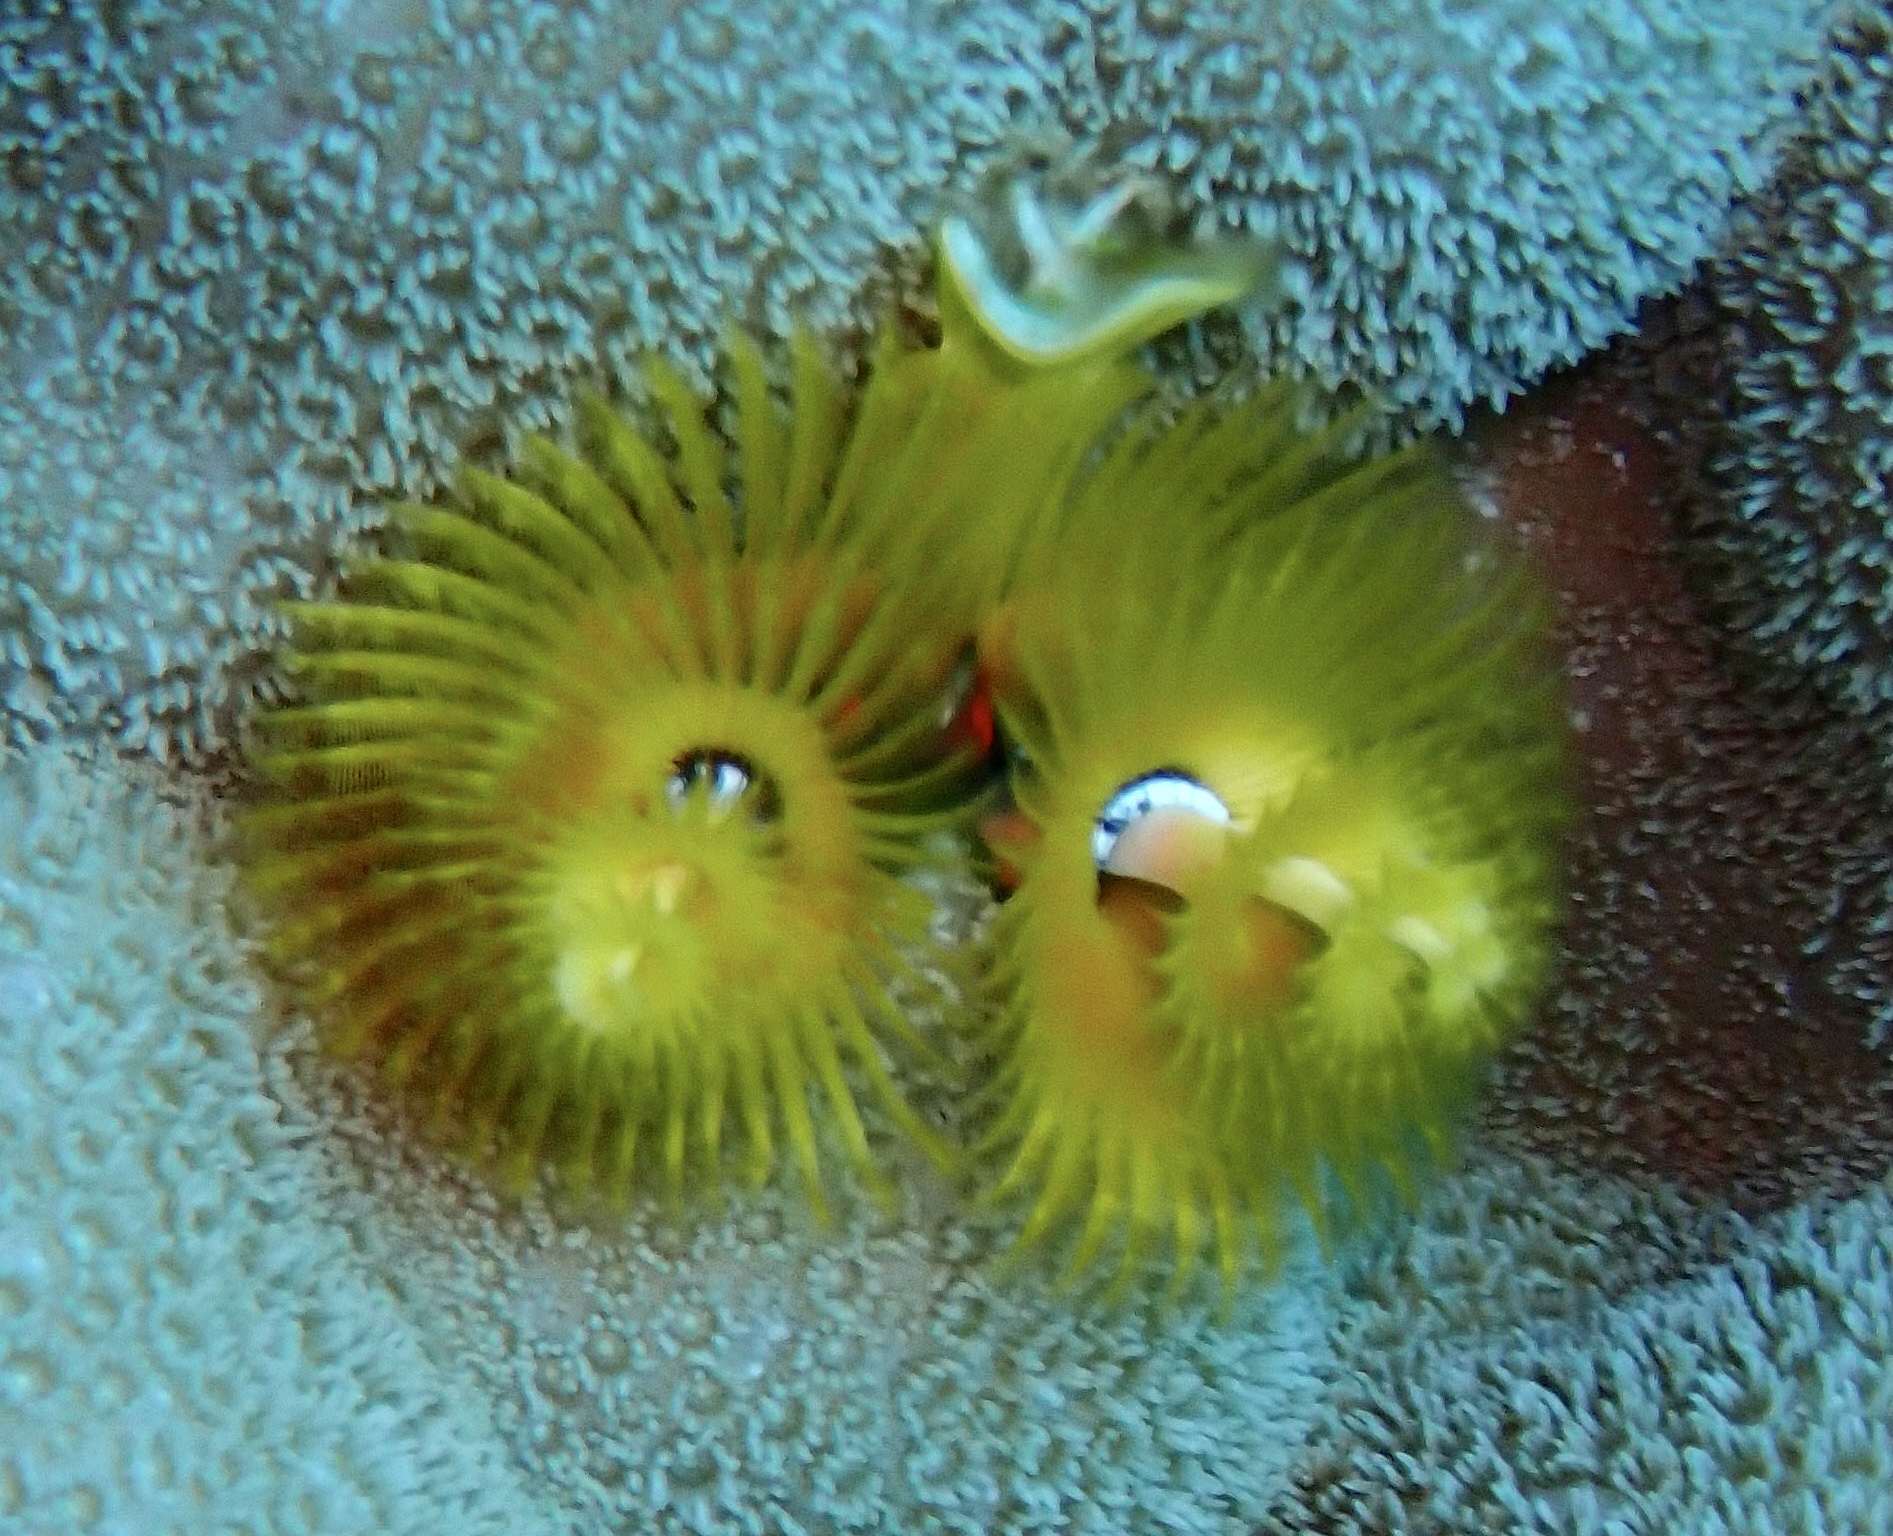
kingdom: Animalia
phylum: Annelida
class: Polychaeta
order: Sabellida
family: Serpulidae
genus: Spirobranchus
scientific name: Spirobranchus
